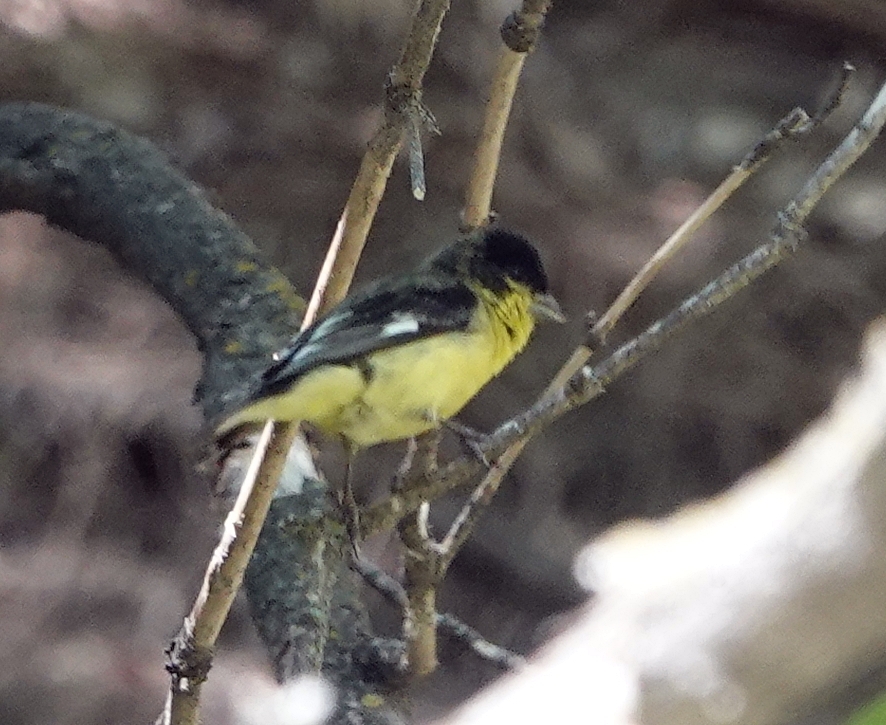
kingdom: Animalia
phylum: Chordata
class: Aves
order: Passeriformes
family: Fringillidae
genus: Spinus
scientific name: Spinus psaltria
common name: Lesser goldfinch
